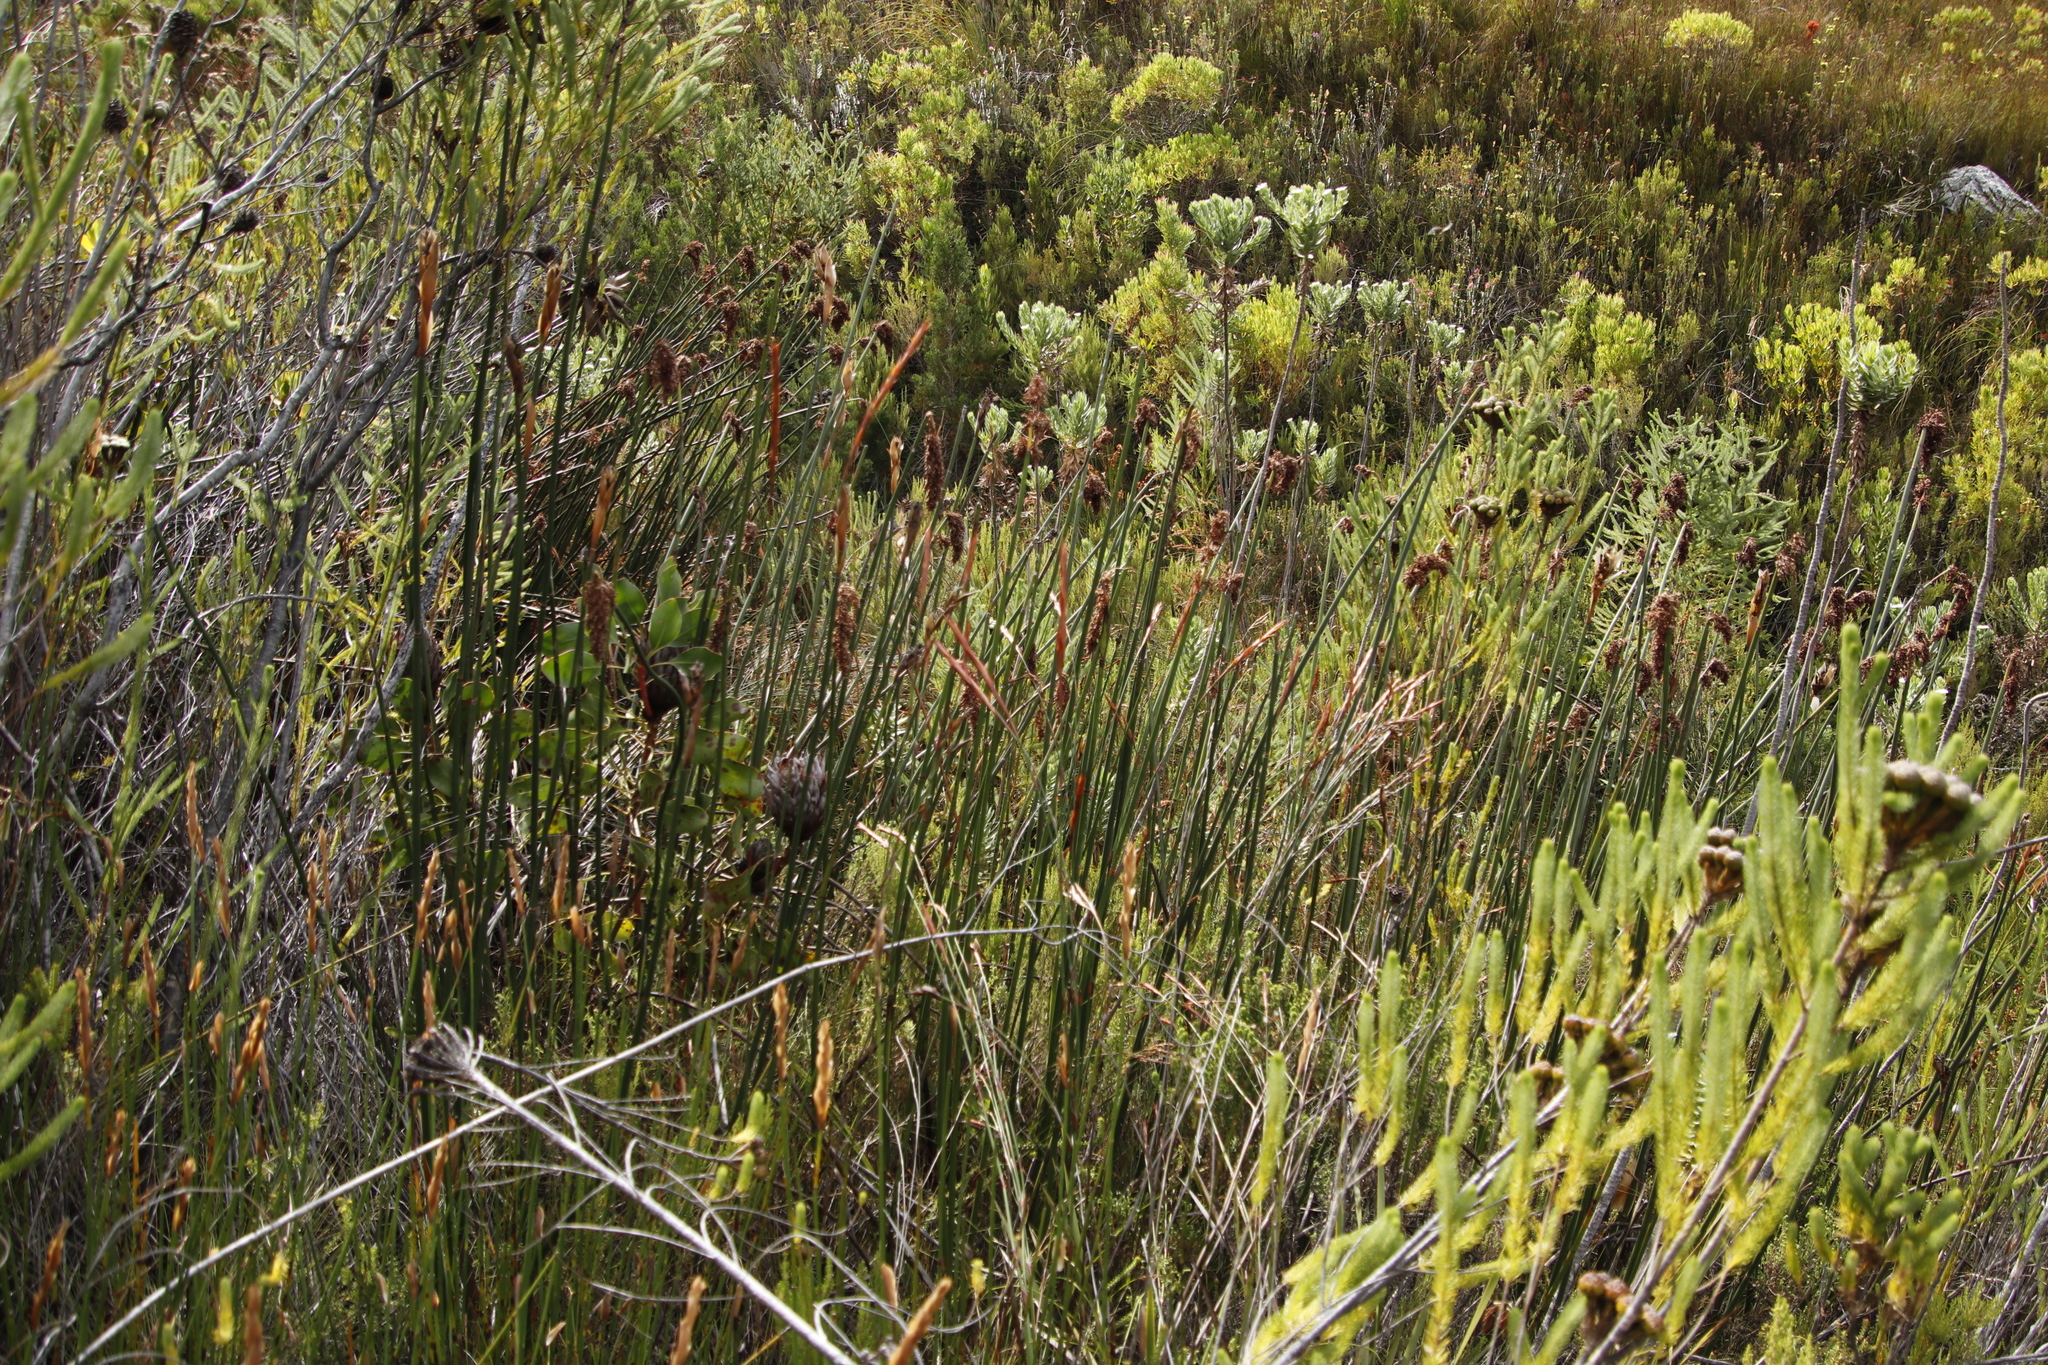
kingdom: Plantae
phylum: Tracheophyta
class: Liliopsida
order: Poales
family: Restionaceae
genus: Elegia
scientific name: Elegia mucronata
